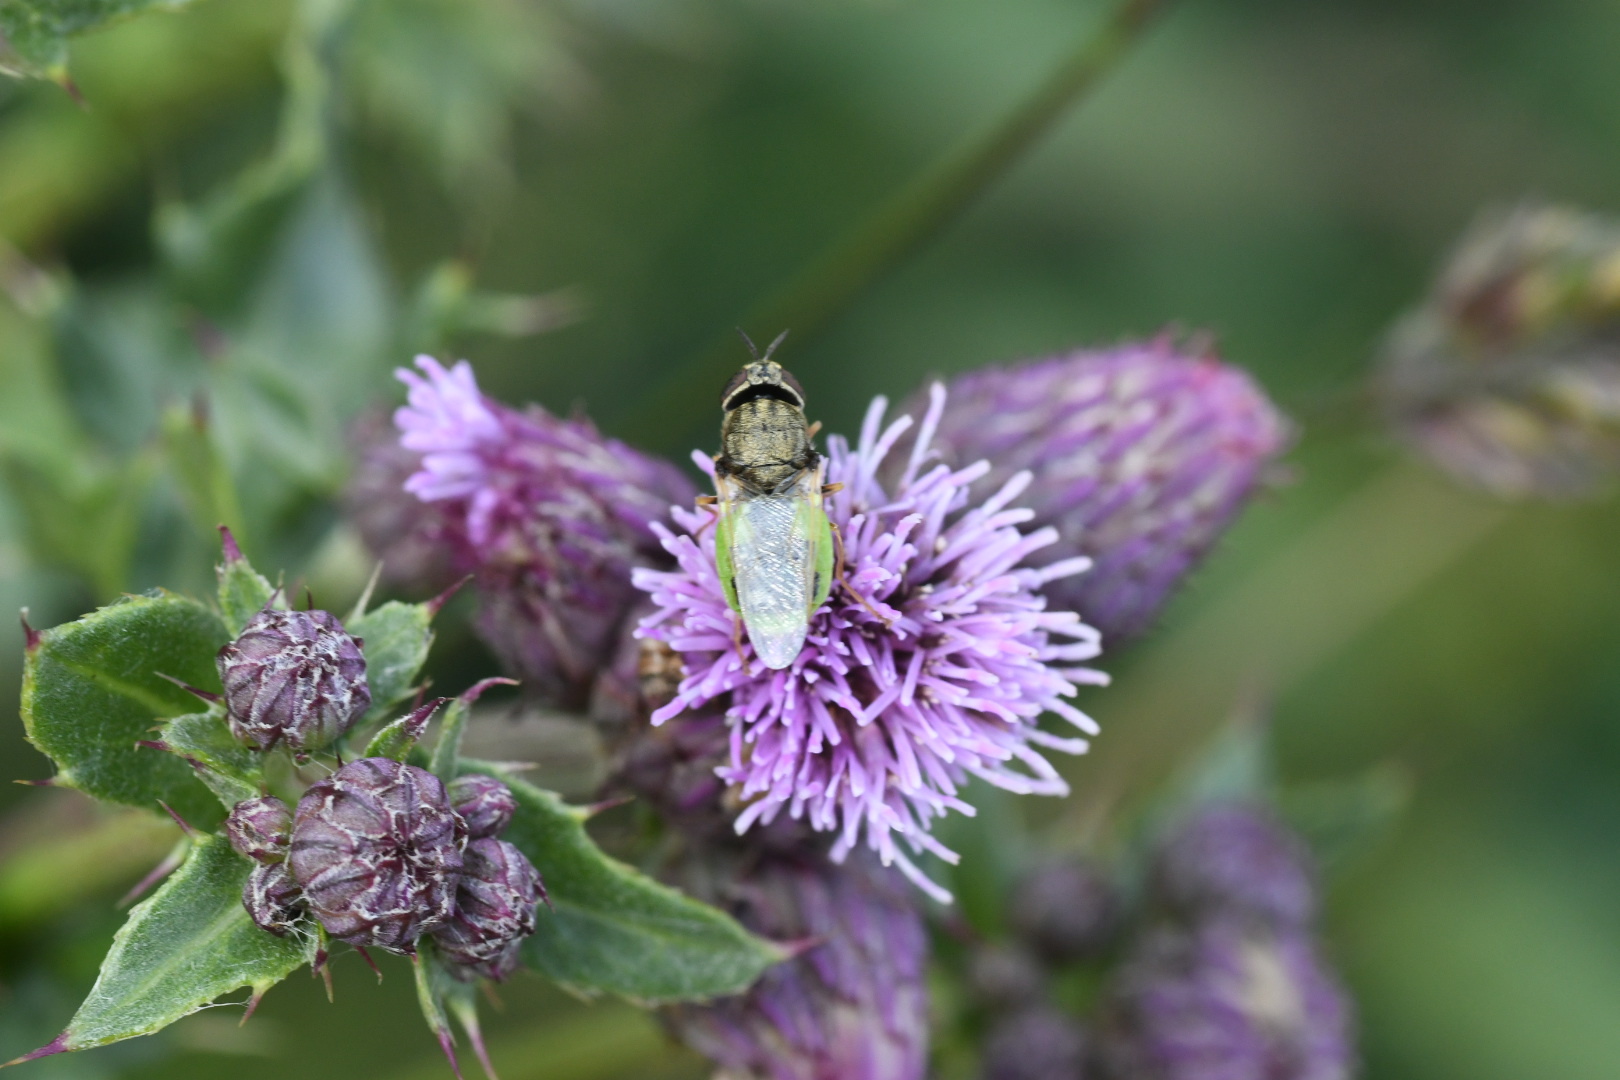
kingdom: Animalia
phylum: Arthropoda
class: Insecta
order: Diptera
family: Stratiomyidae
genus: Oplodontha
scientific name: Oplodontha viridula
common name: Common green colonel
